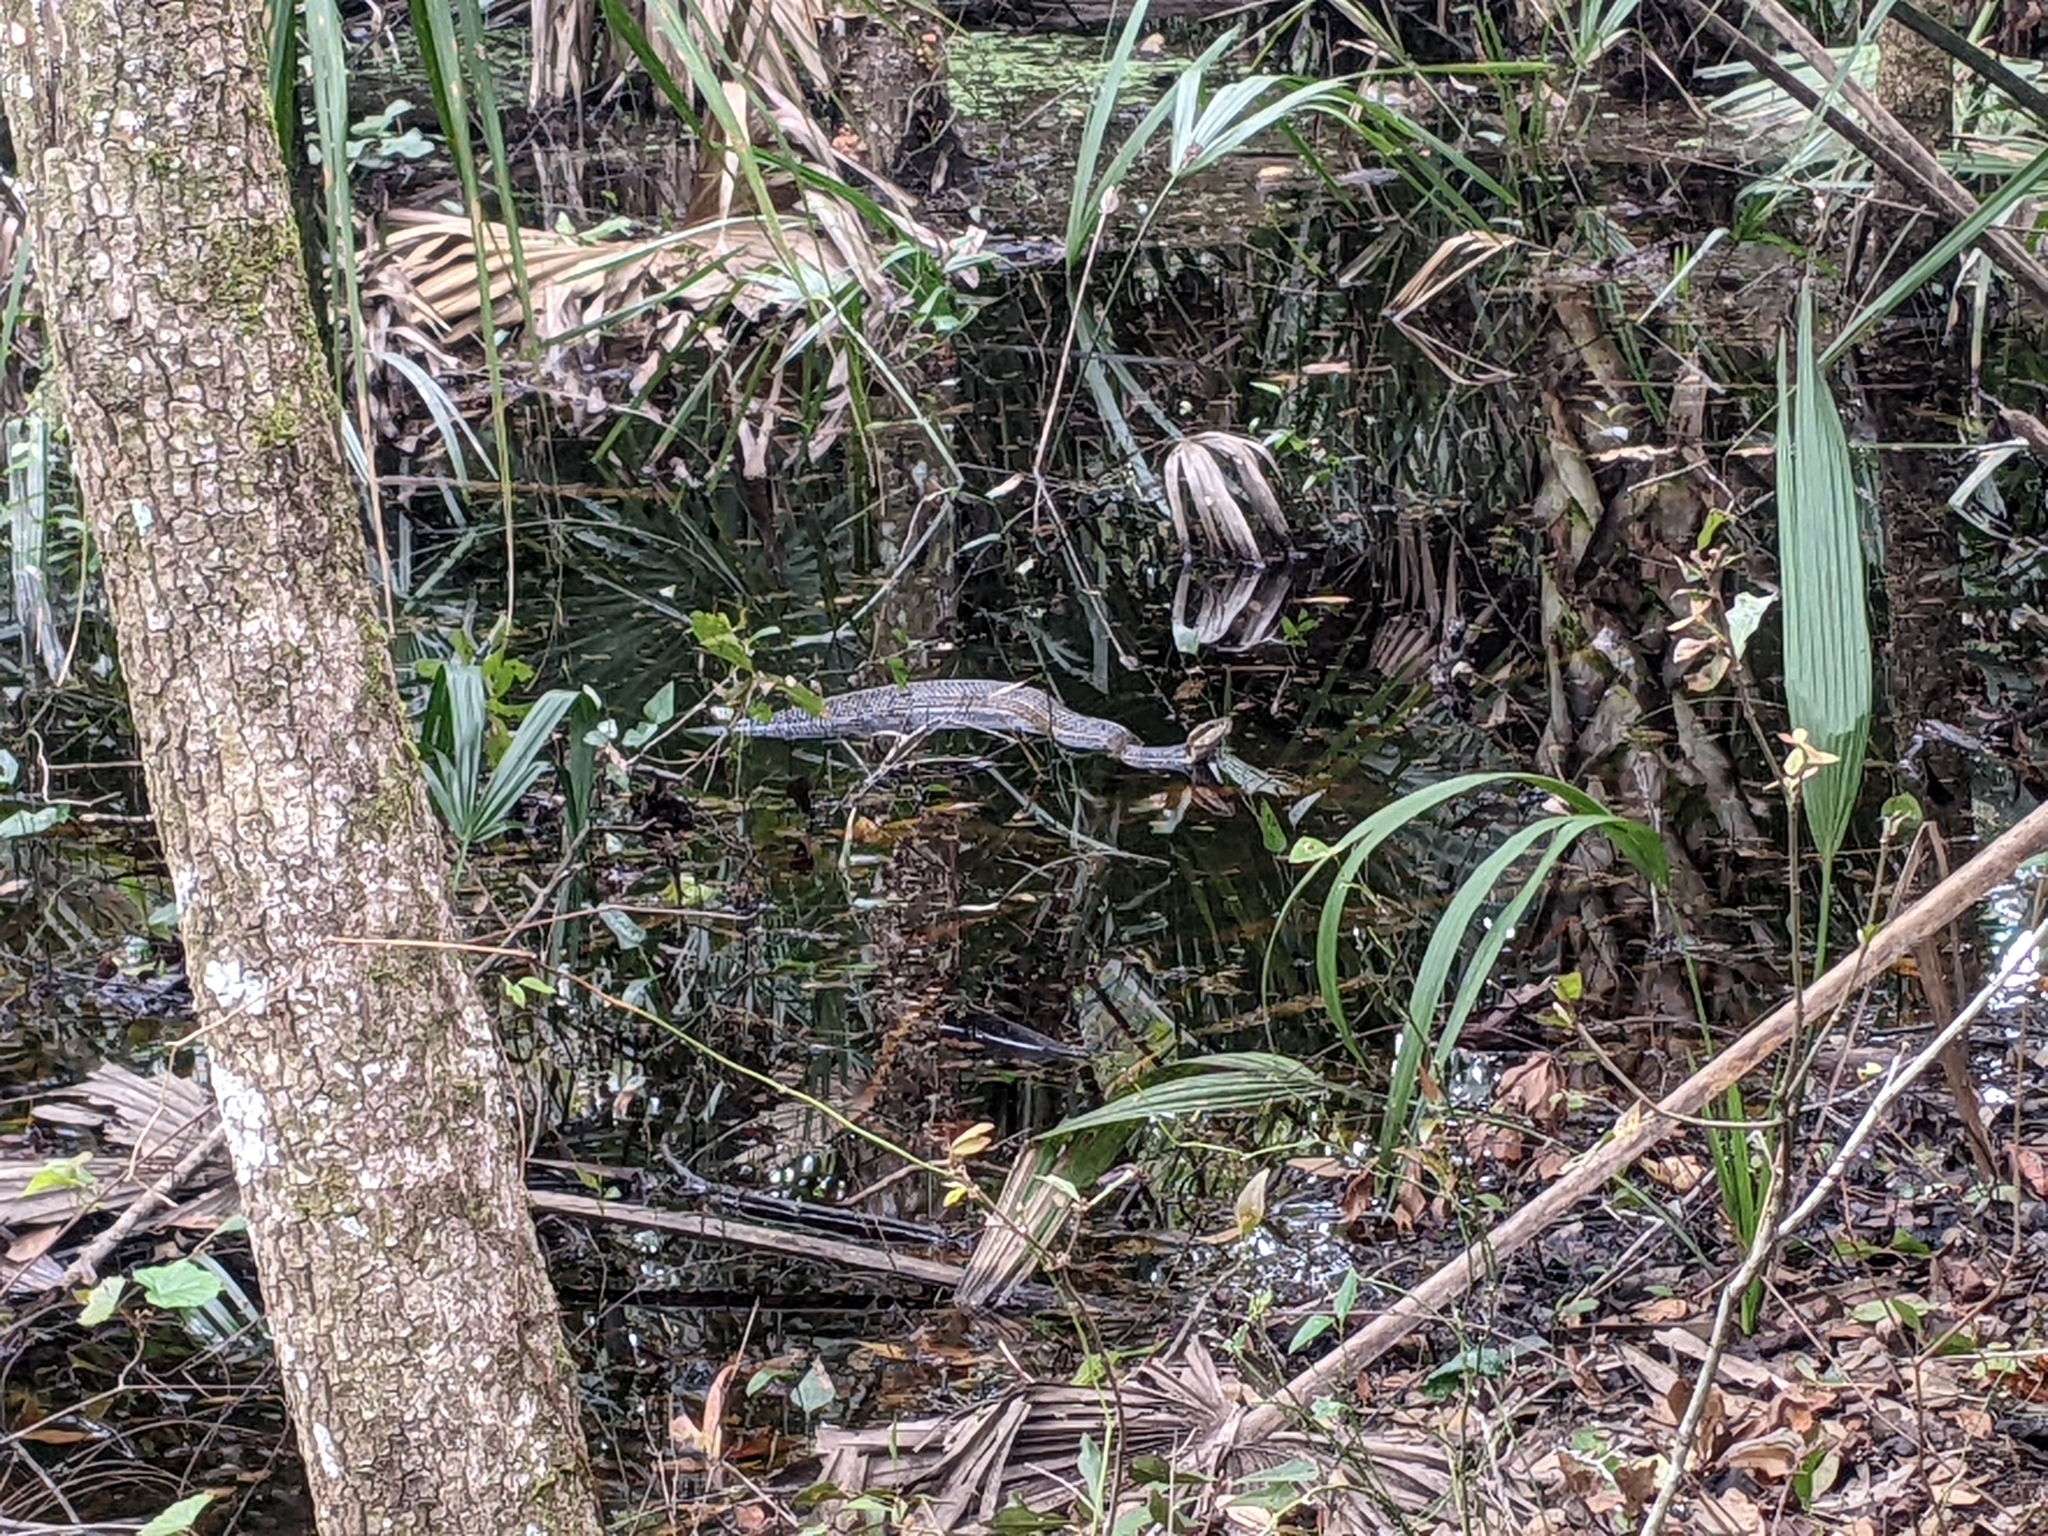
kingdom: Animalia
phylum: Chordata
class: Squamata
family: Viperidae
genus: Agkistrodon
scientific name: Agkistrodon conanti
